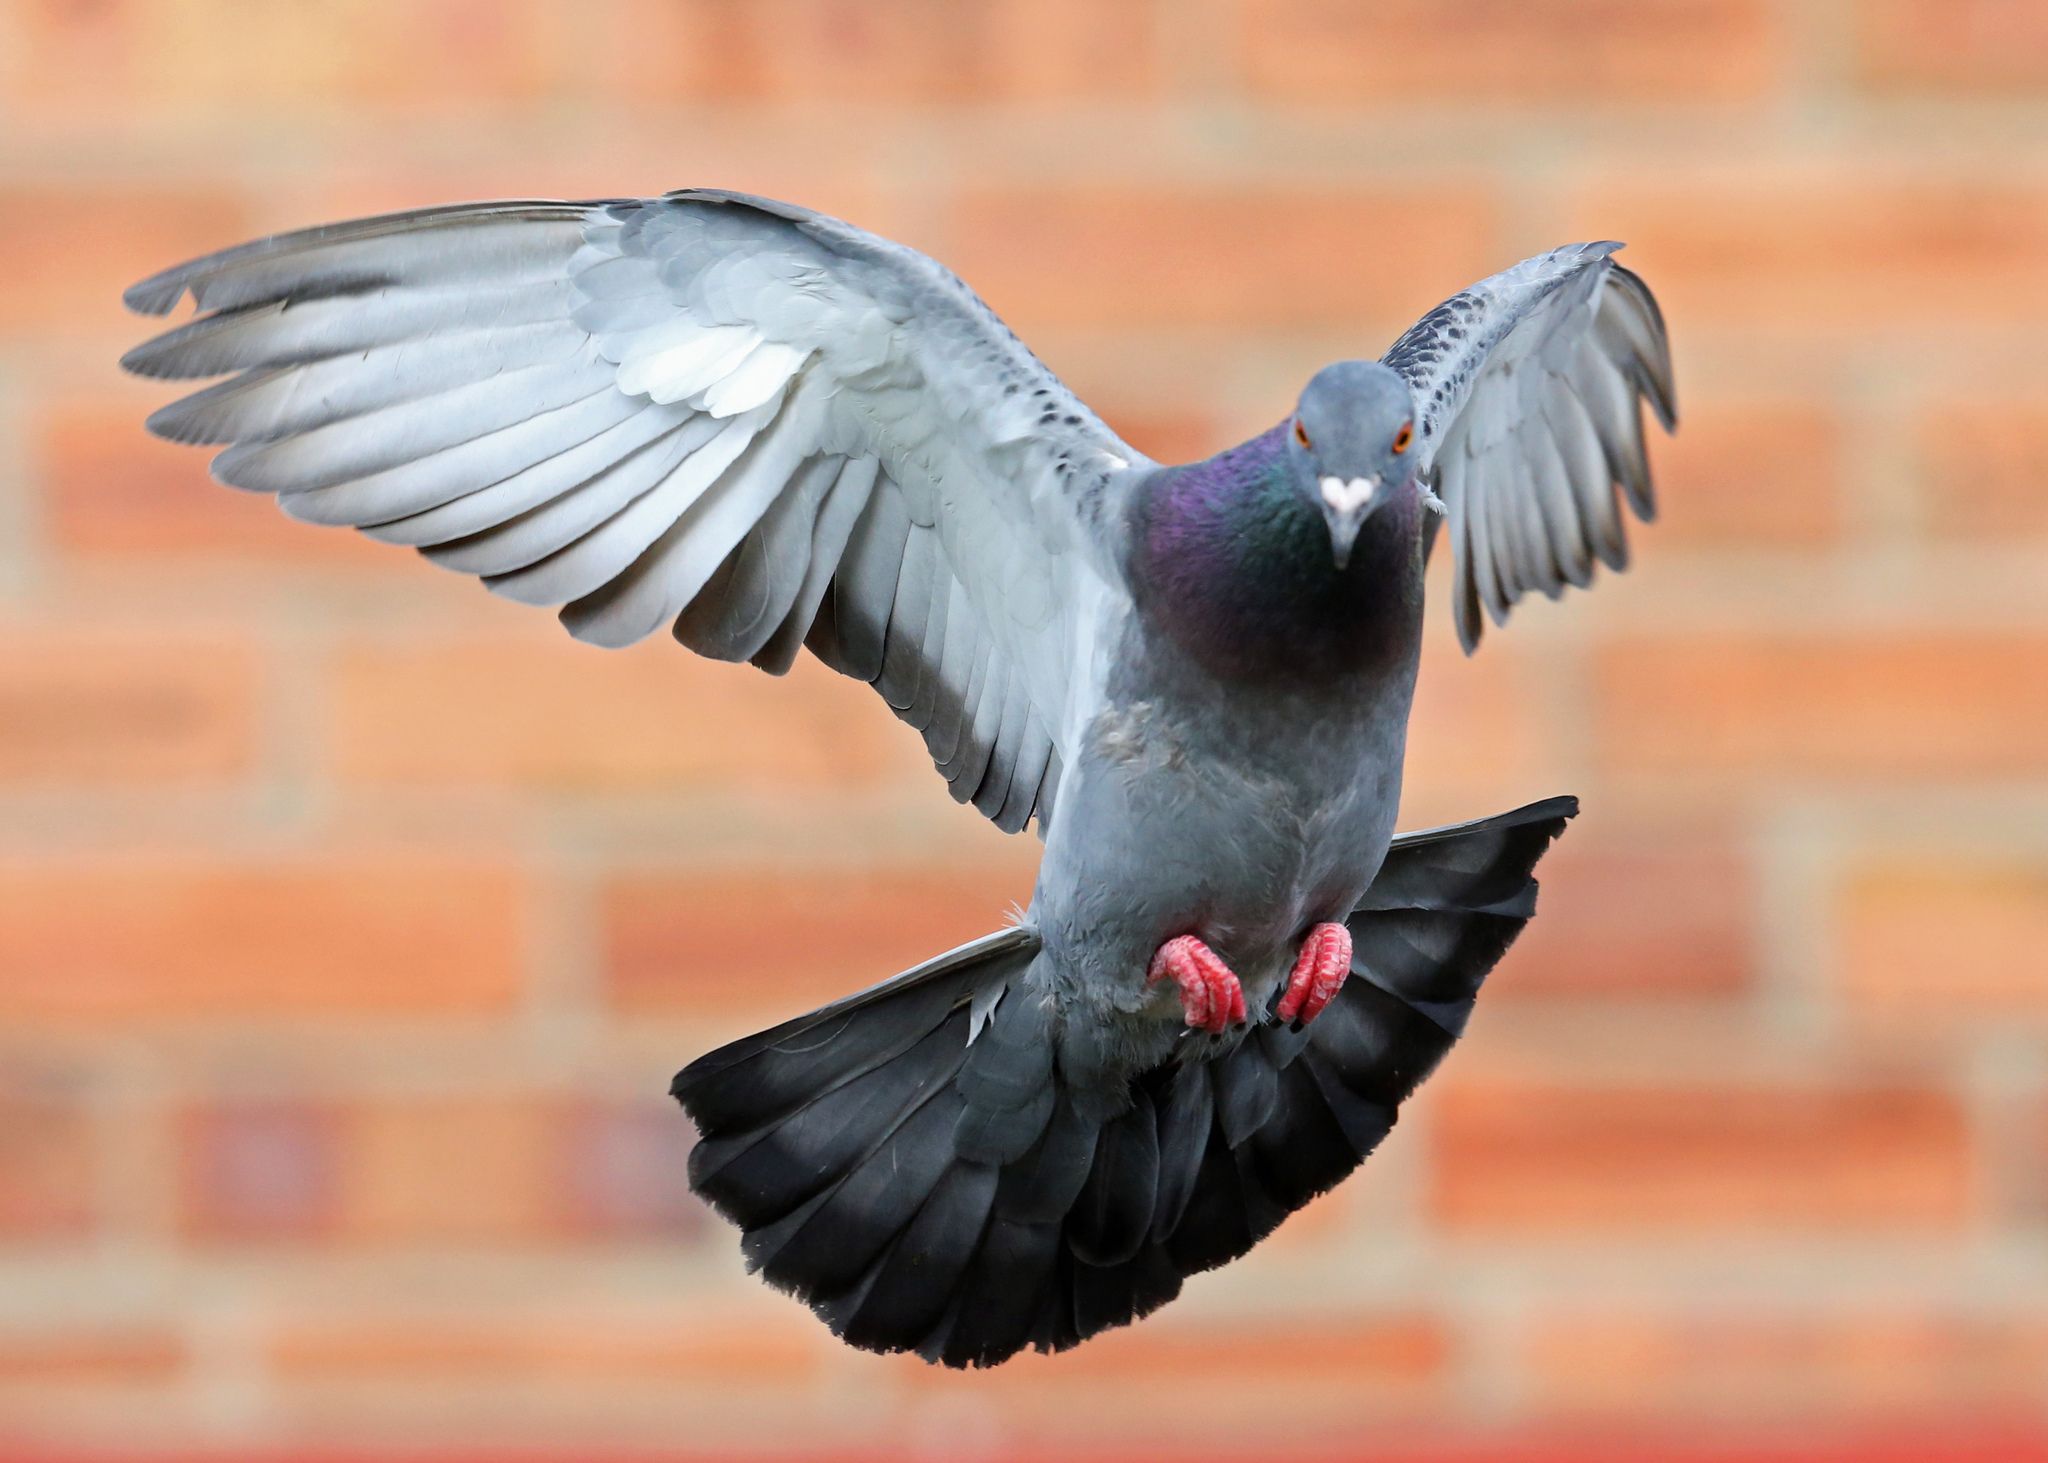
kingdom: Animalia
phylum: Chordata
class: Aves
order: Columbiformes
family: Columbidae
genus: Columba
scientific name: Columba livia
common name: Rock pigeon
